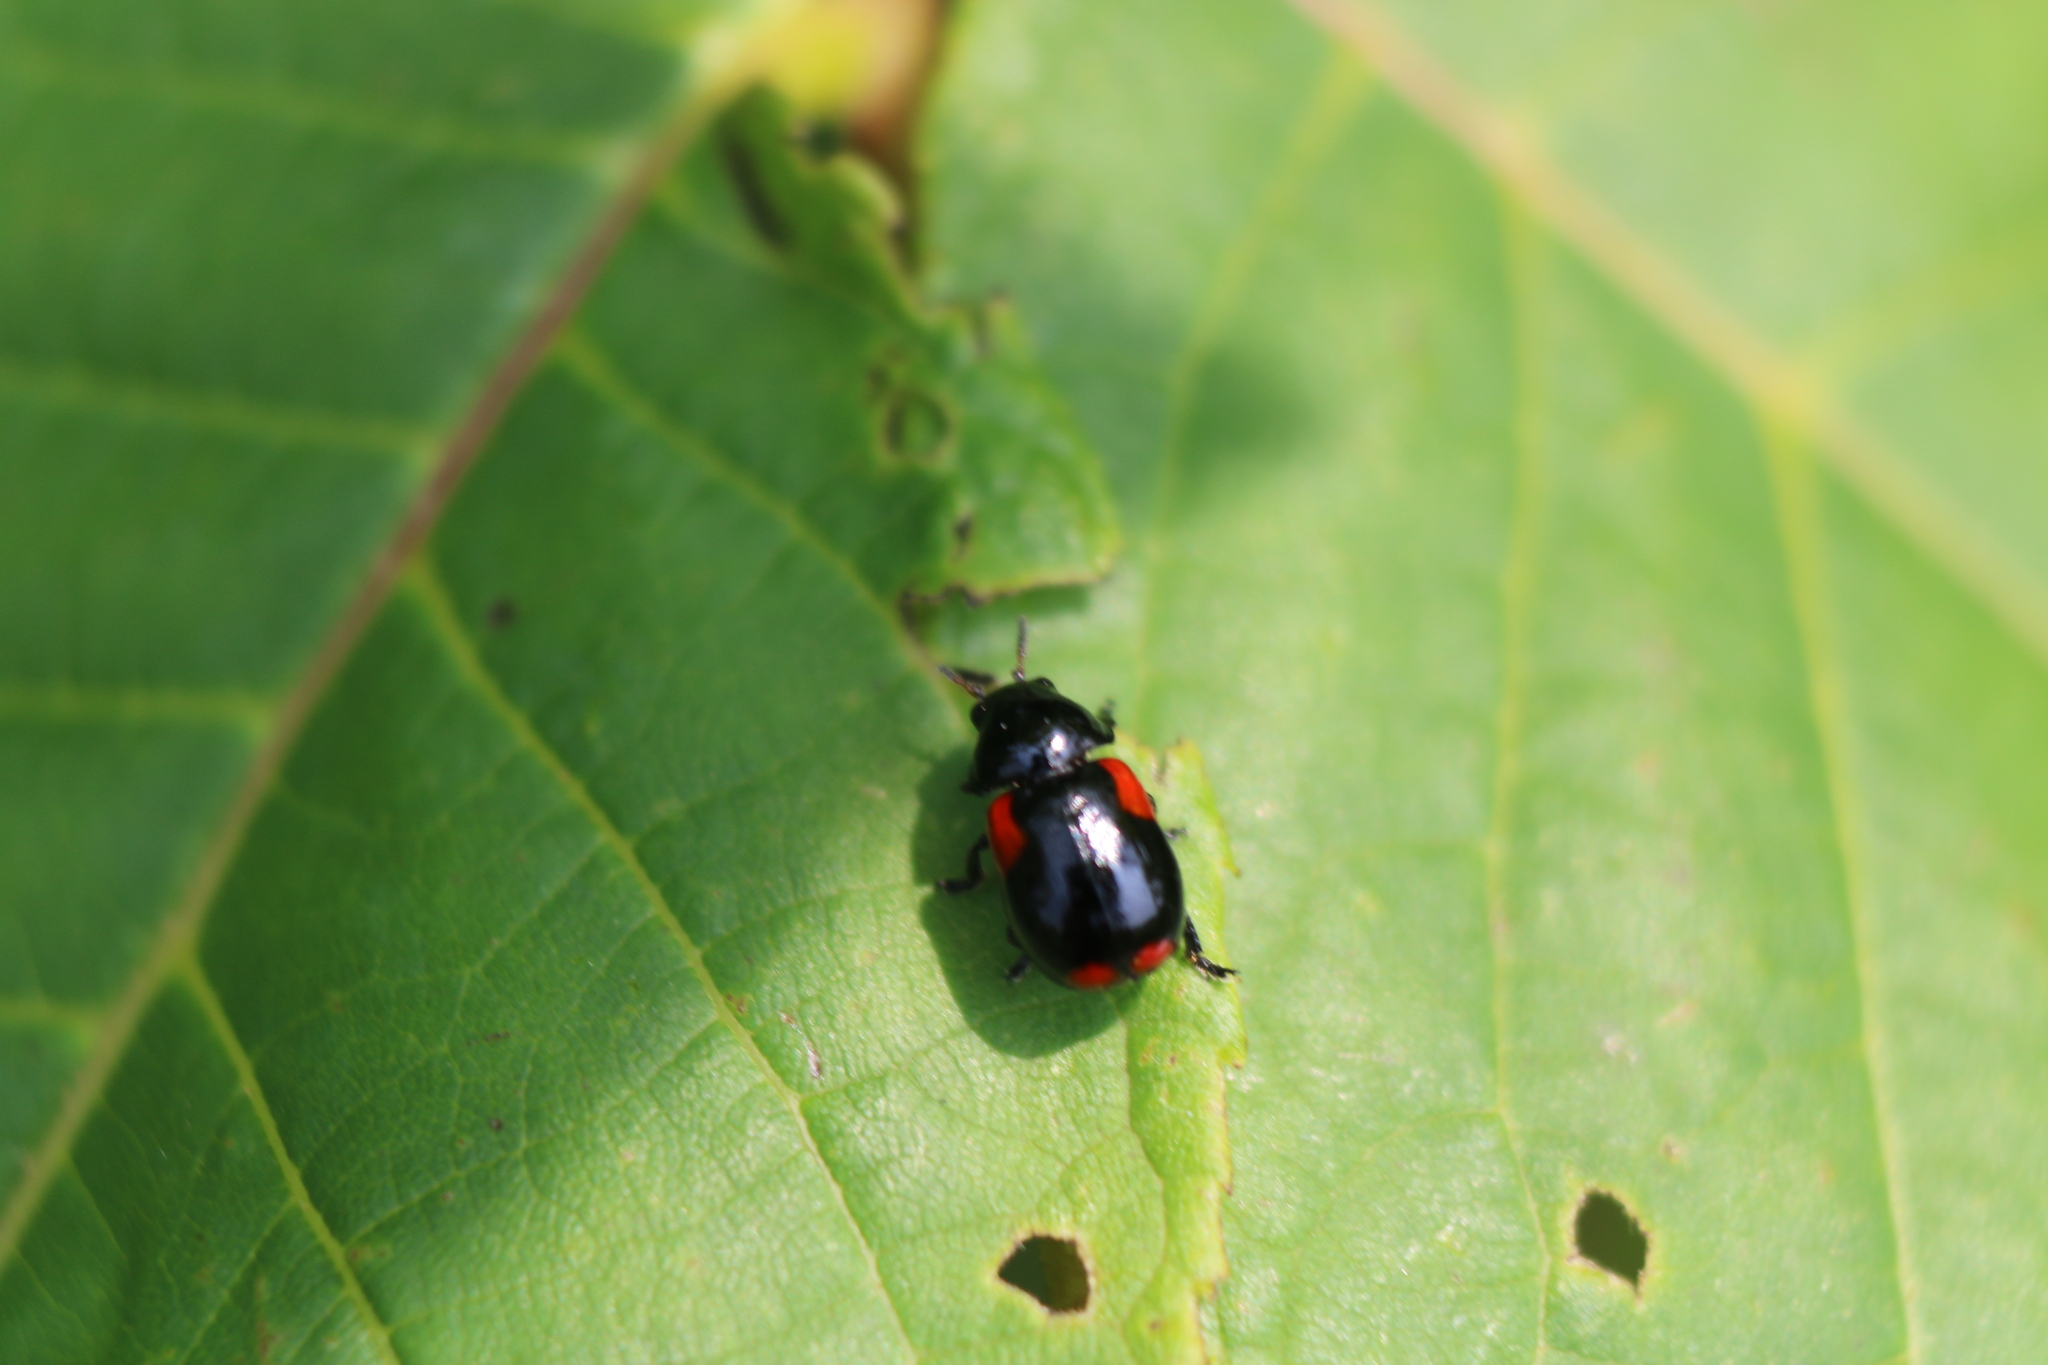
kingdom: Animalia
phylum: Arthropoda
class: Insecta
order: Coleoptera
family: Chrysomelidae
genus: Babia
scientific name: Babia quadriguttata
